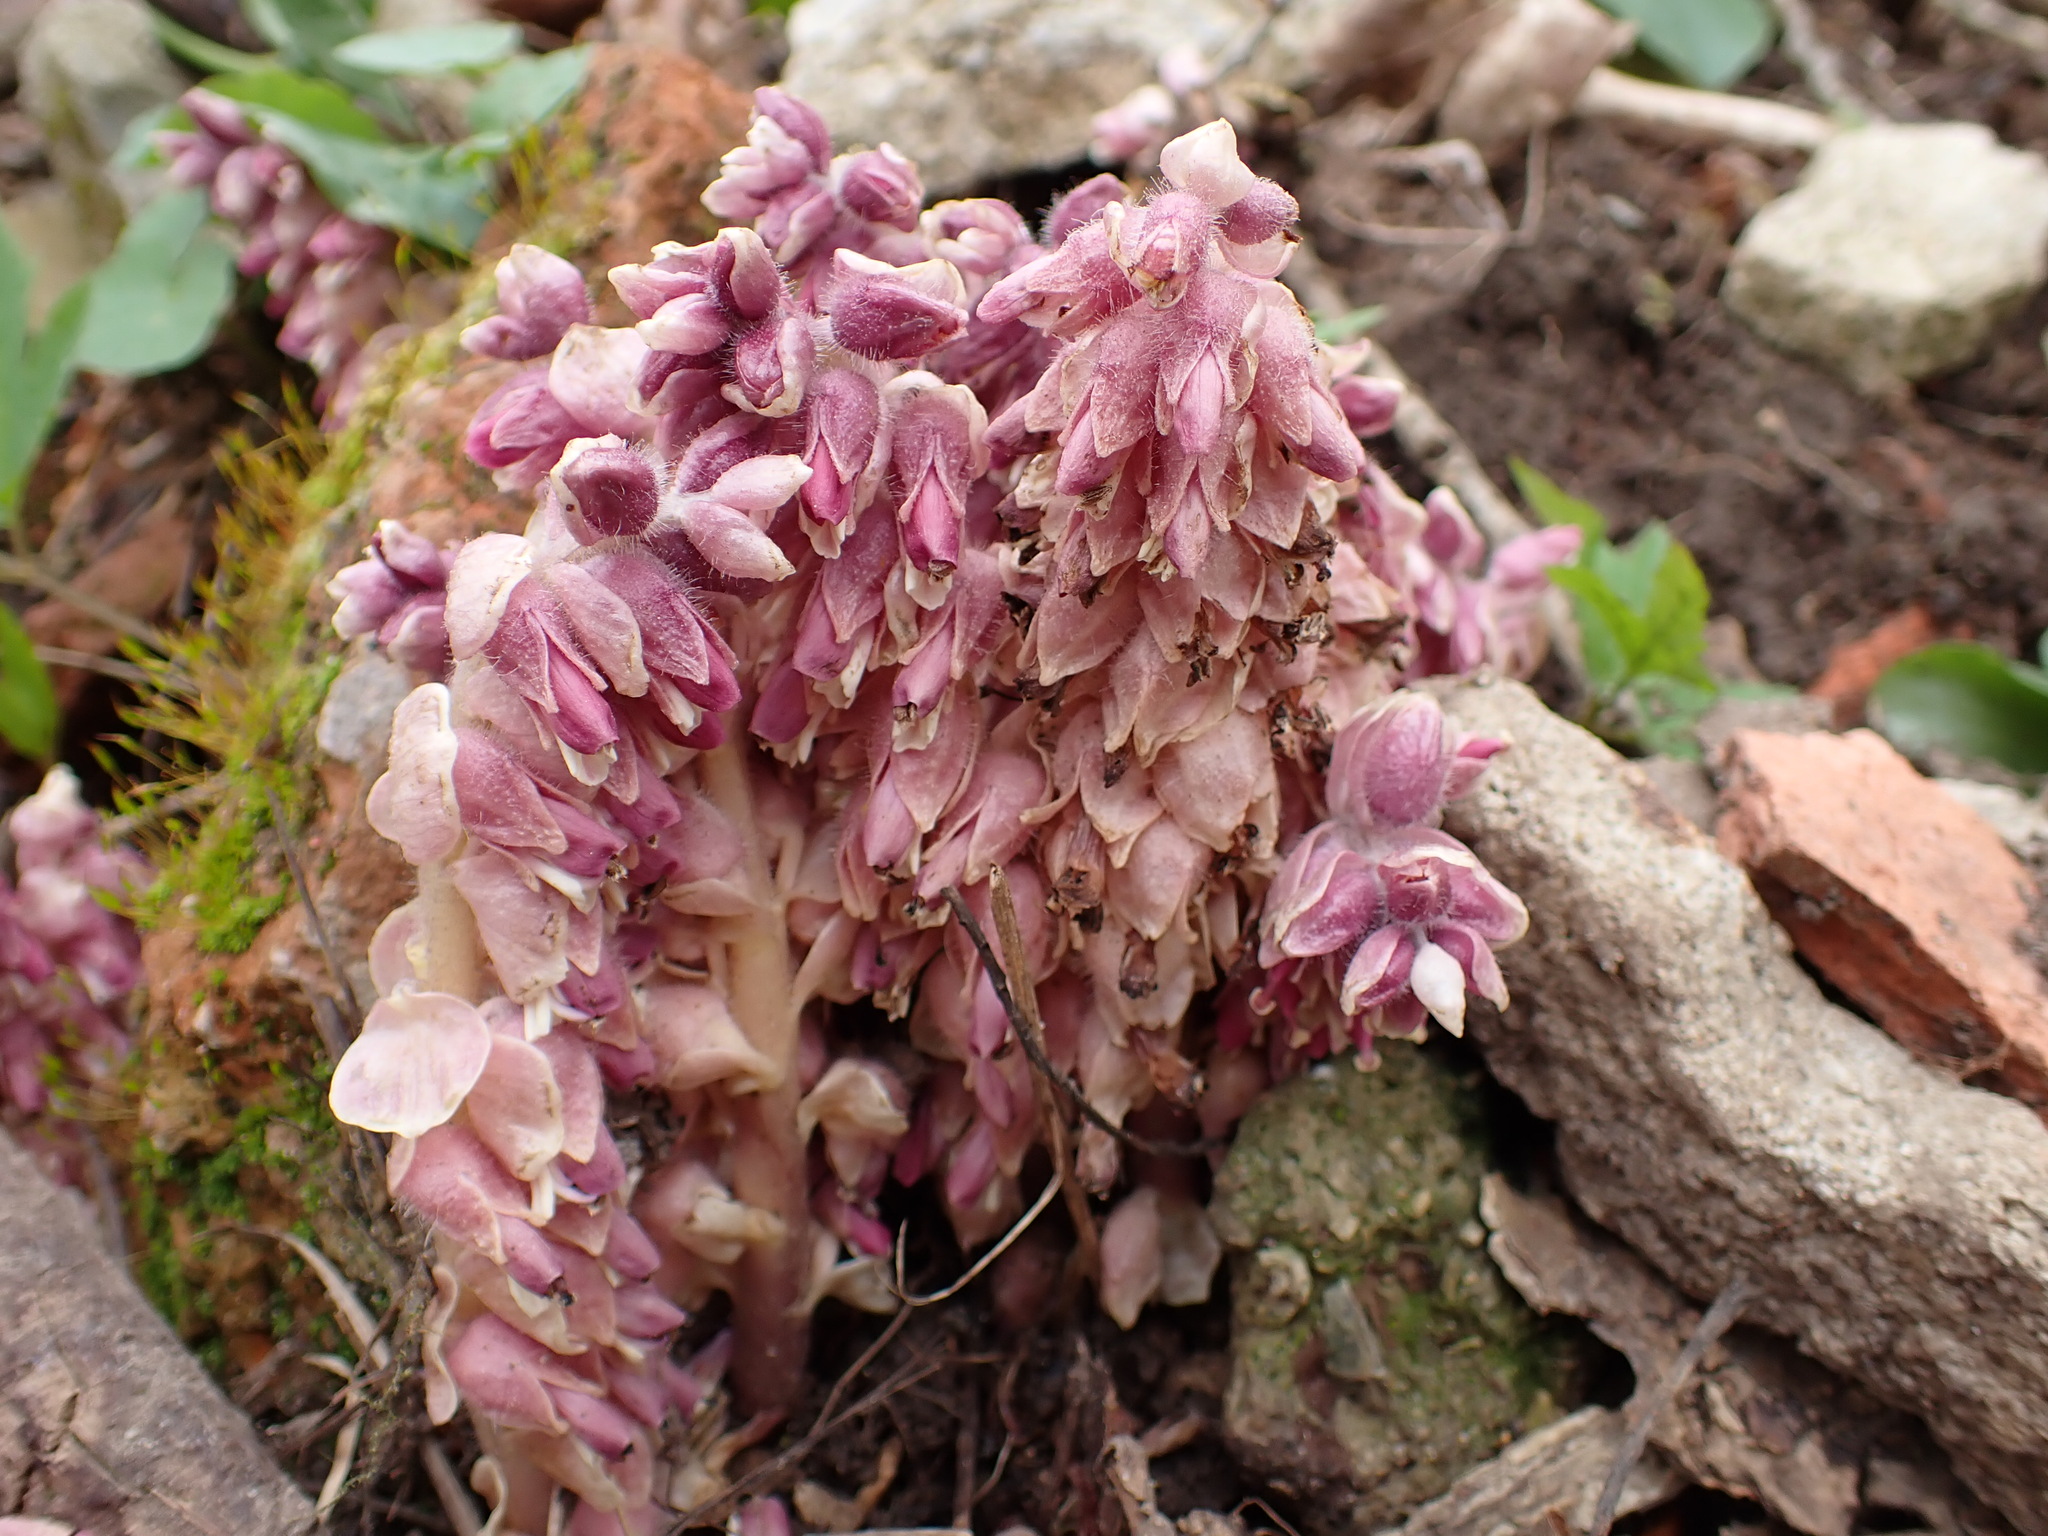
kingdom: Plantae
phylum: Tracheophyta
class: Magnoliopsida
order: Lamiales
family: Orobanchaceae
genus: Lathraea
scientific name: Lathraea squamaria
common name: Toothwort
